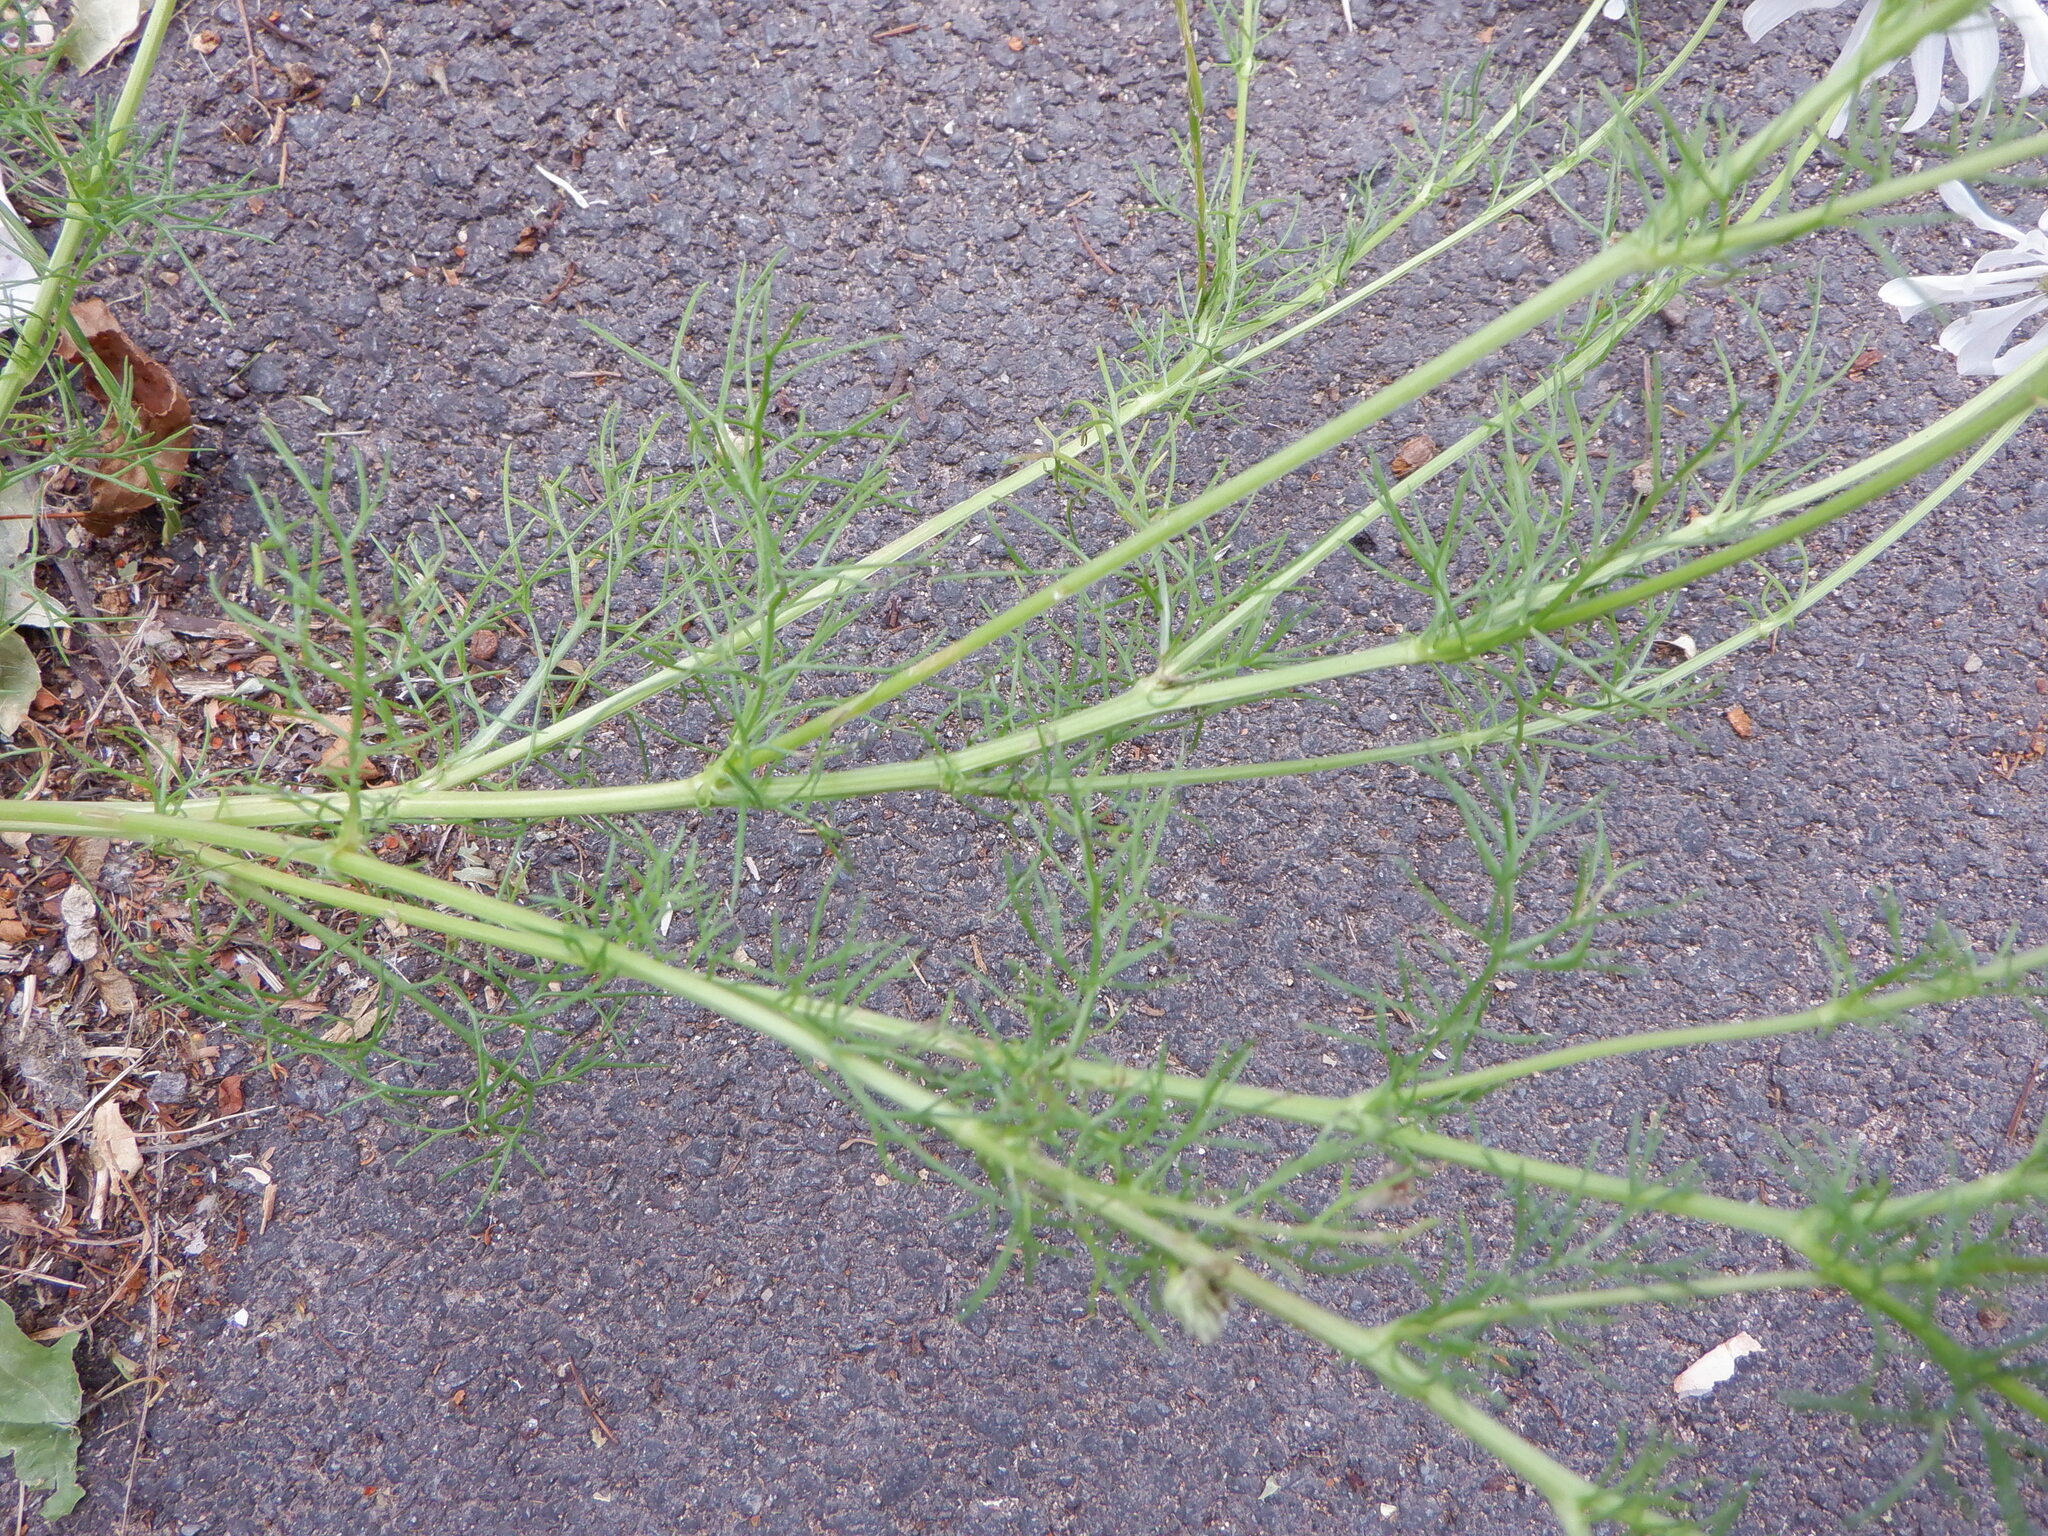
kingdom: Plantae
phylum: Tracheophyta
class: Magnoliopsida
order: Asterales
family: Asteraceae
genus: Tripleurospermum
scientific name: Tripleurospermum inodorum
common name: Scentless mayweed
